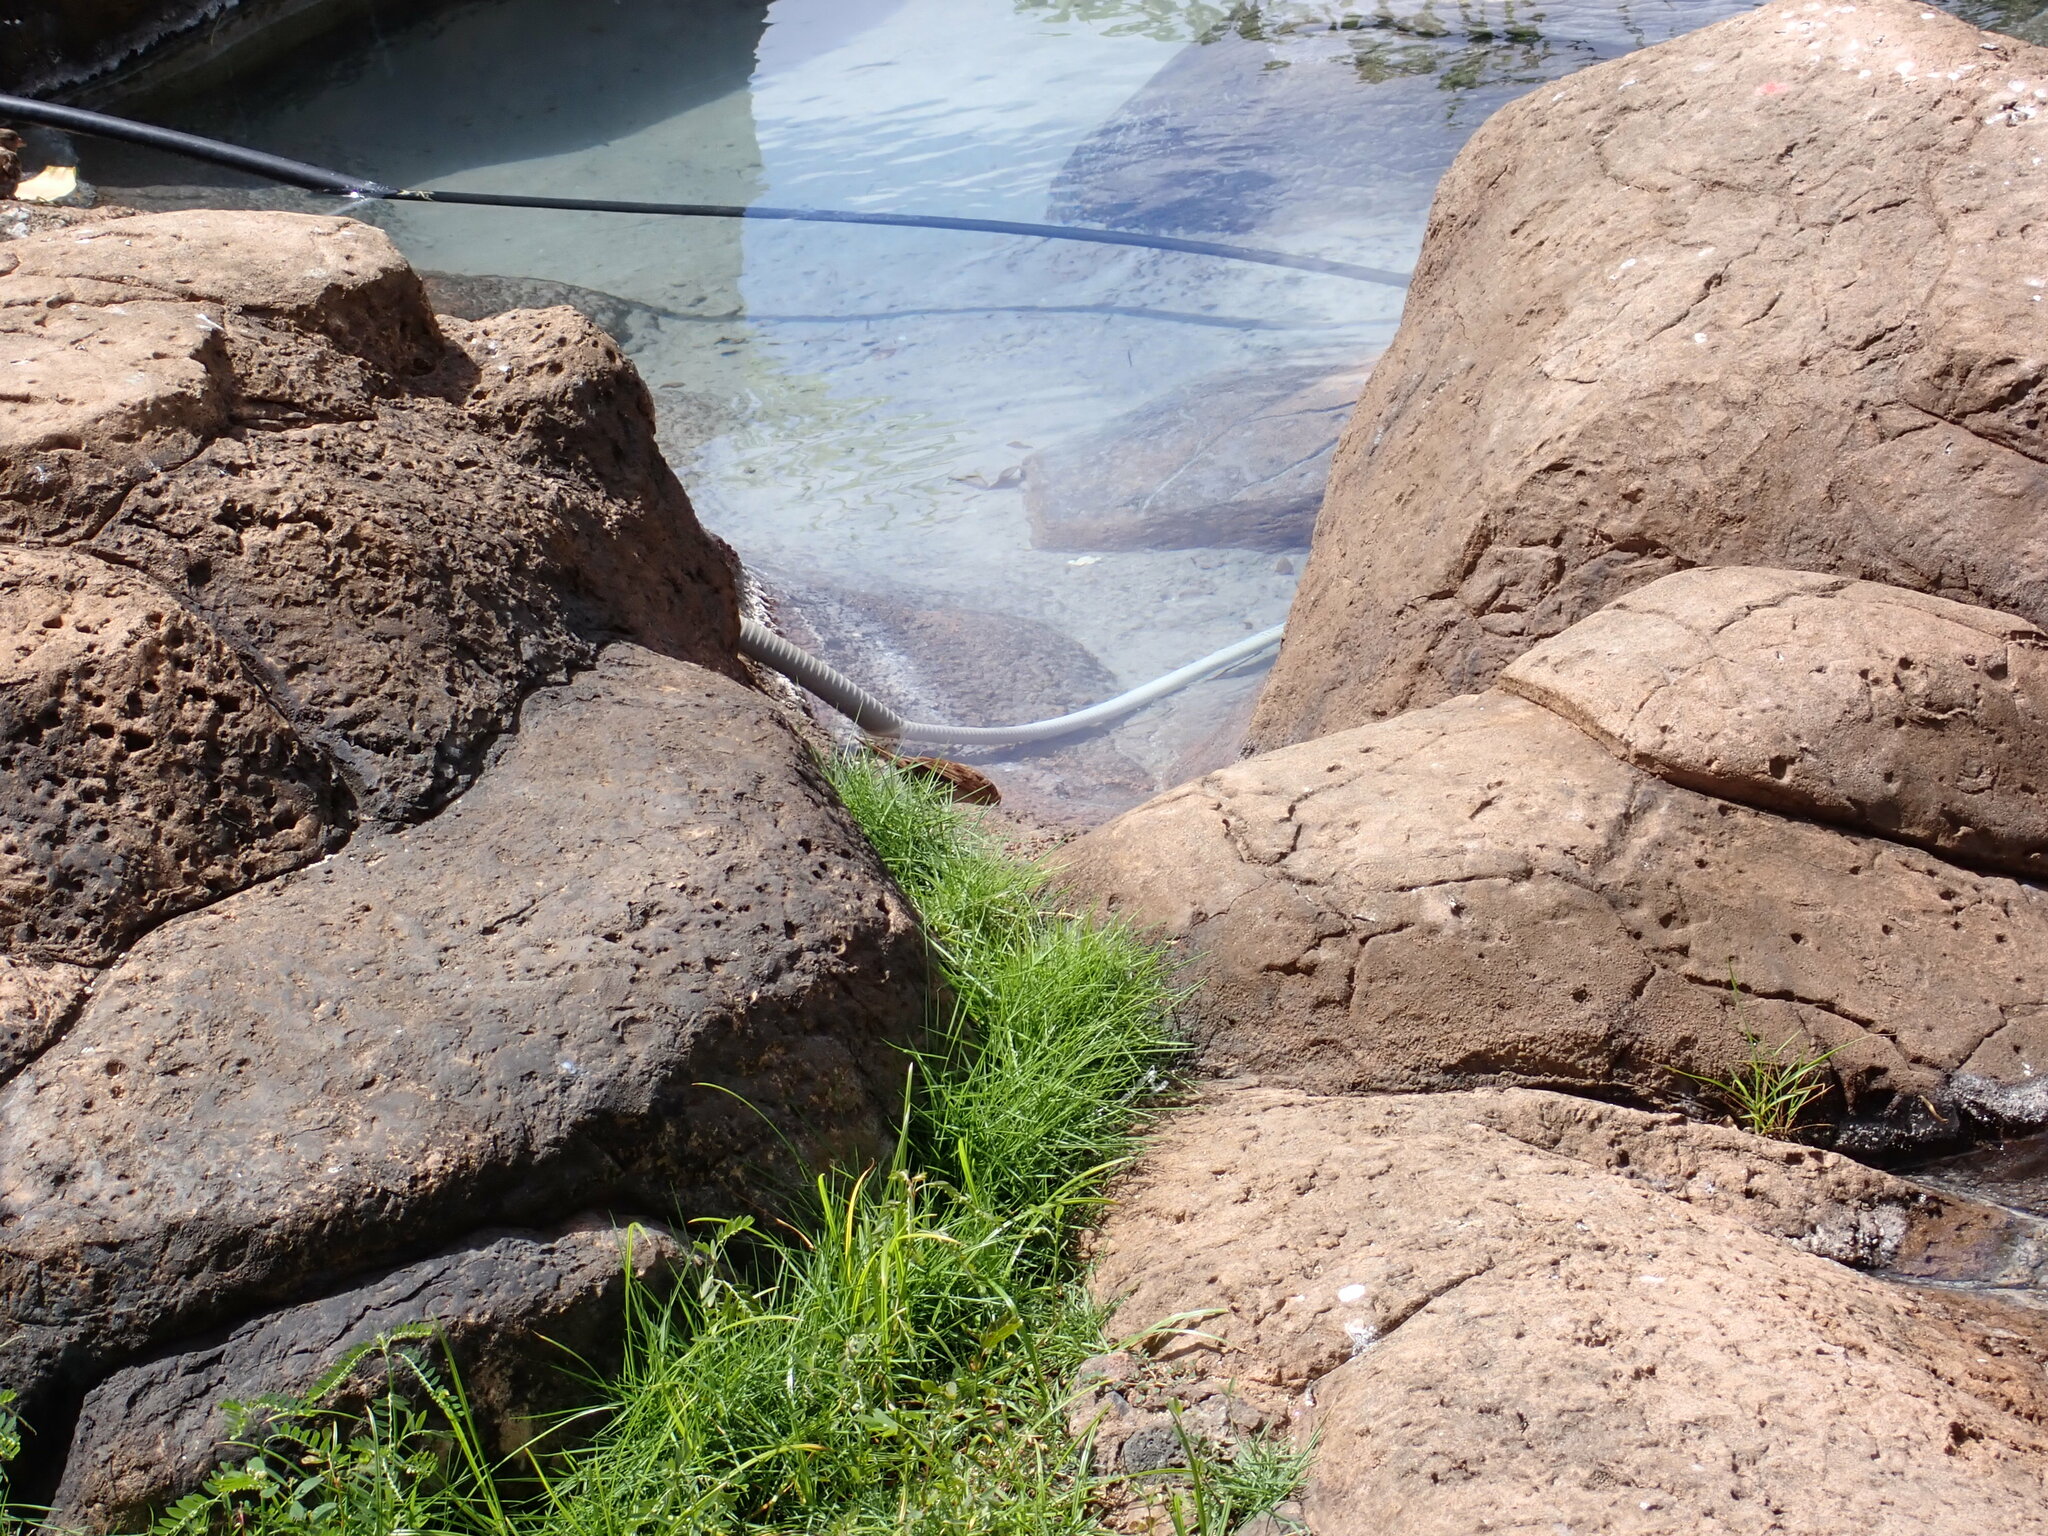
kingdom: Animalia
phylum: Chordata
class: Aves
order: Passeriformes
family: Passeridae
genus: Passer
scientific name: Passer domesticus
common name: House sparrow
